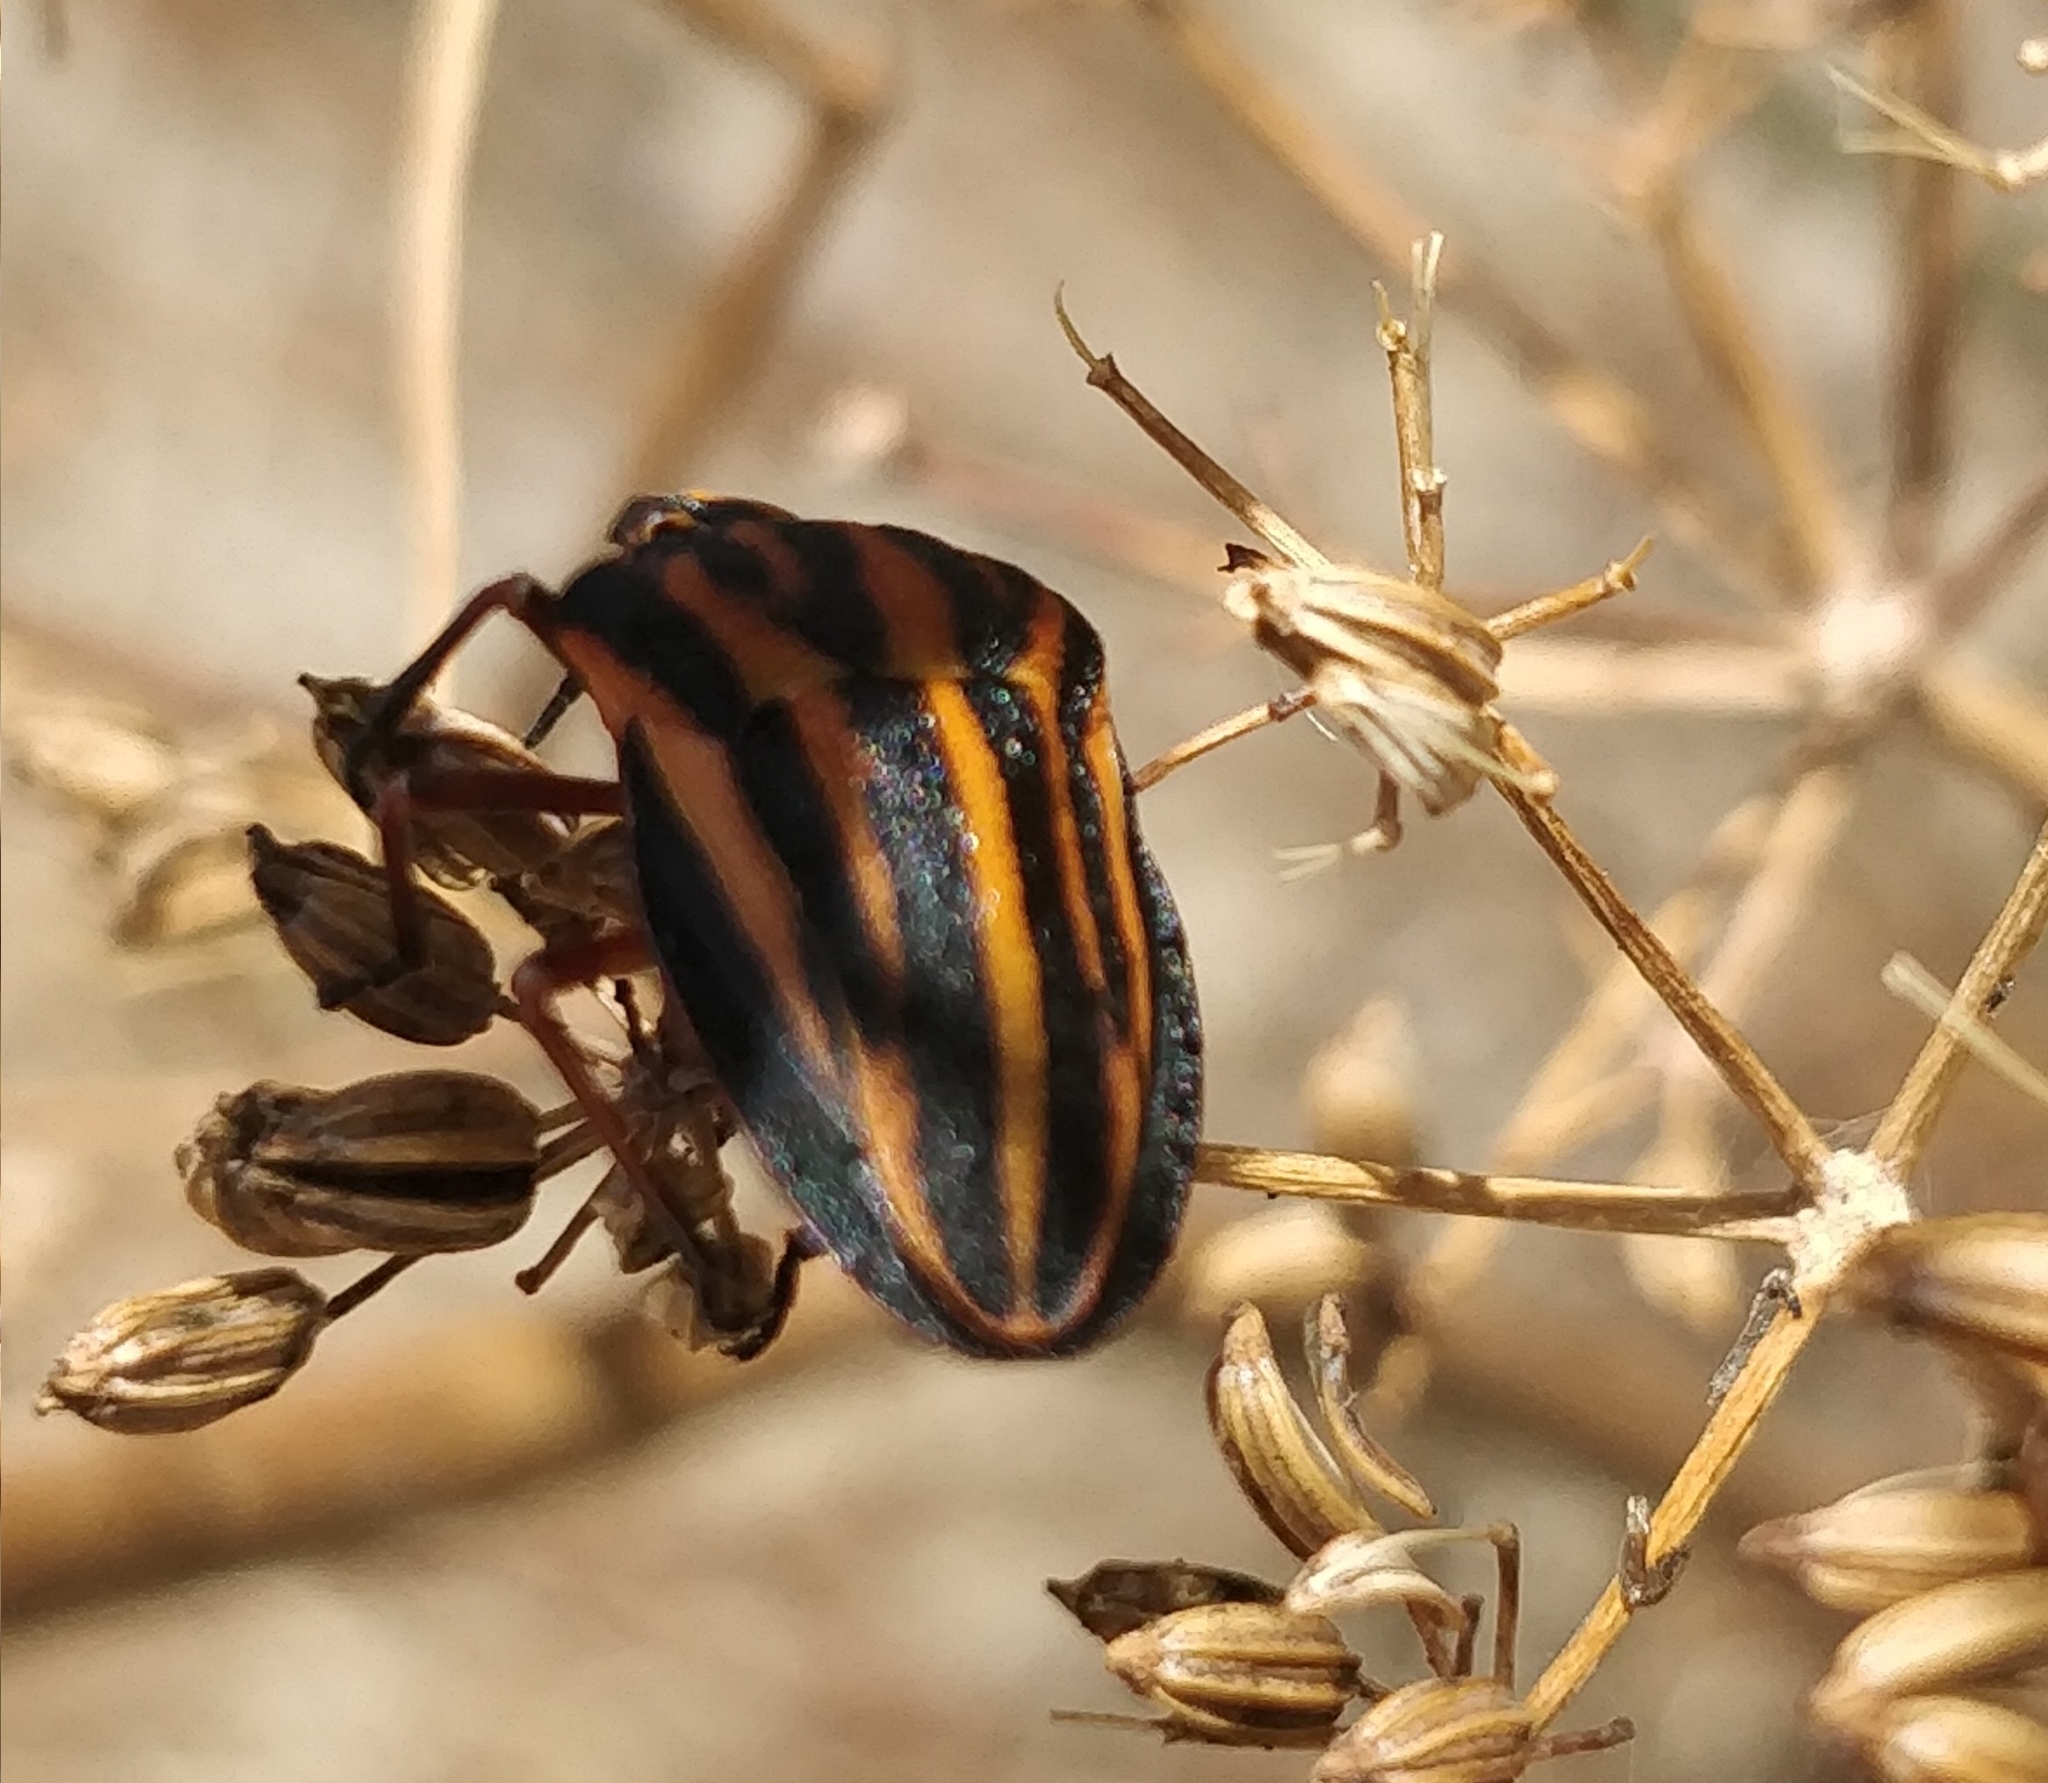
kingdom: Animalia
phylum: Arthropoda
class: Insecta
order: Hemiptera
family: Pentatomidae
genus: Graphosoma
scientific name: Graphosoma interruptum
